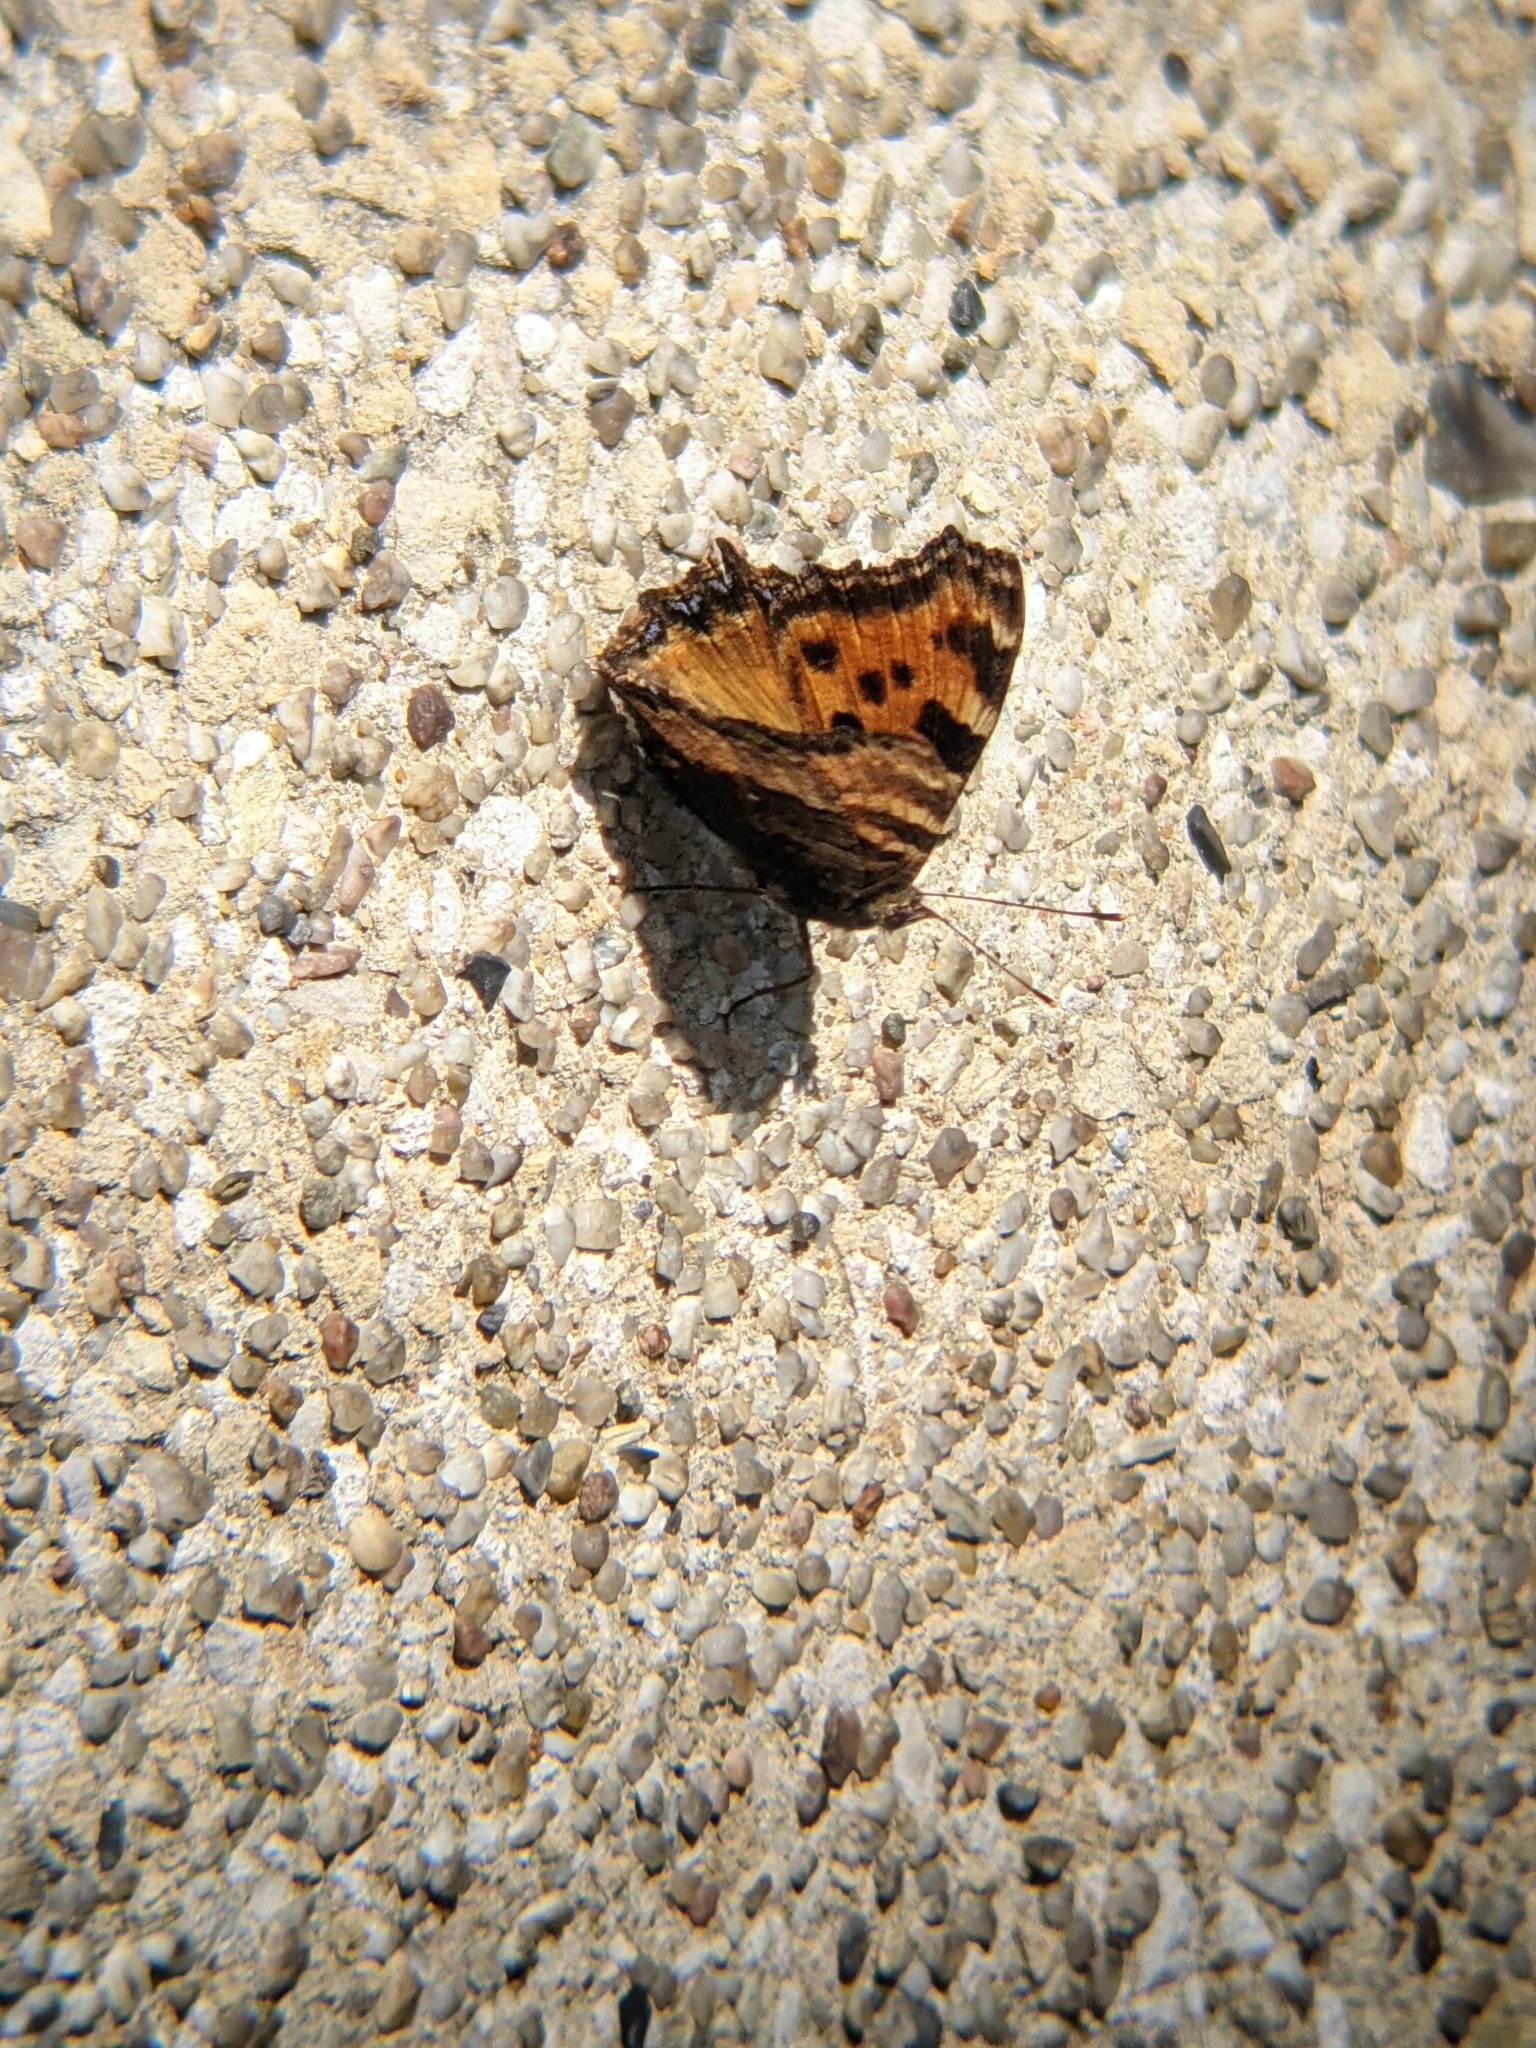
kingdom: Animalia
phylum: Arthropoda
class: Insecta
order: Lepidoptera
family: Nymphalidae
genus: Nymphalis
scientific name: Nymphalis polychloros
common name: Large tortoiseshell
